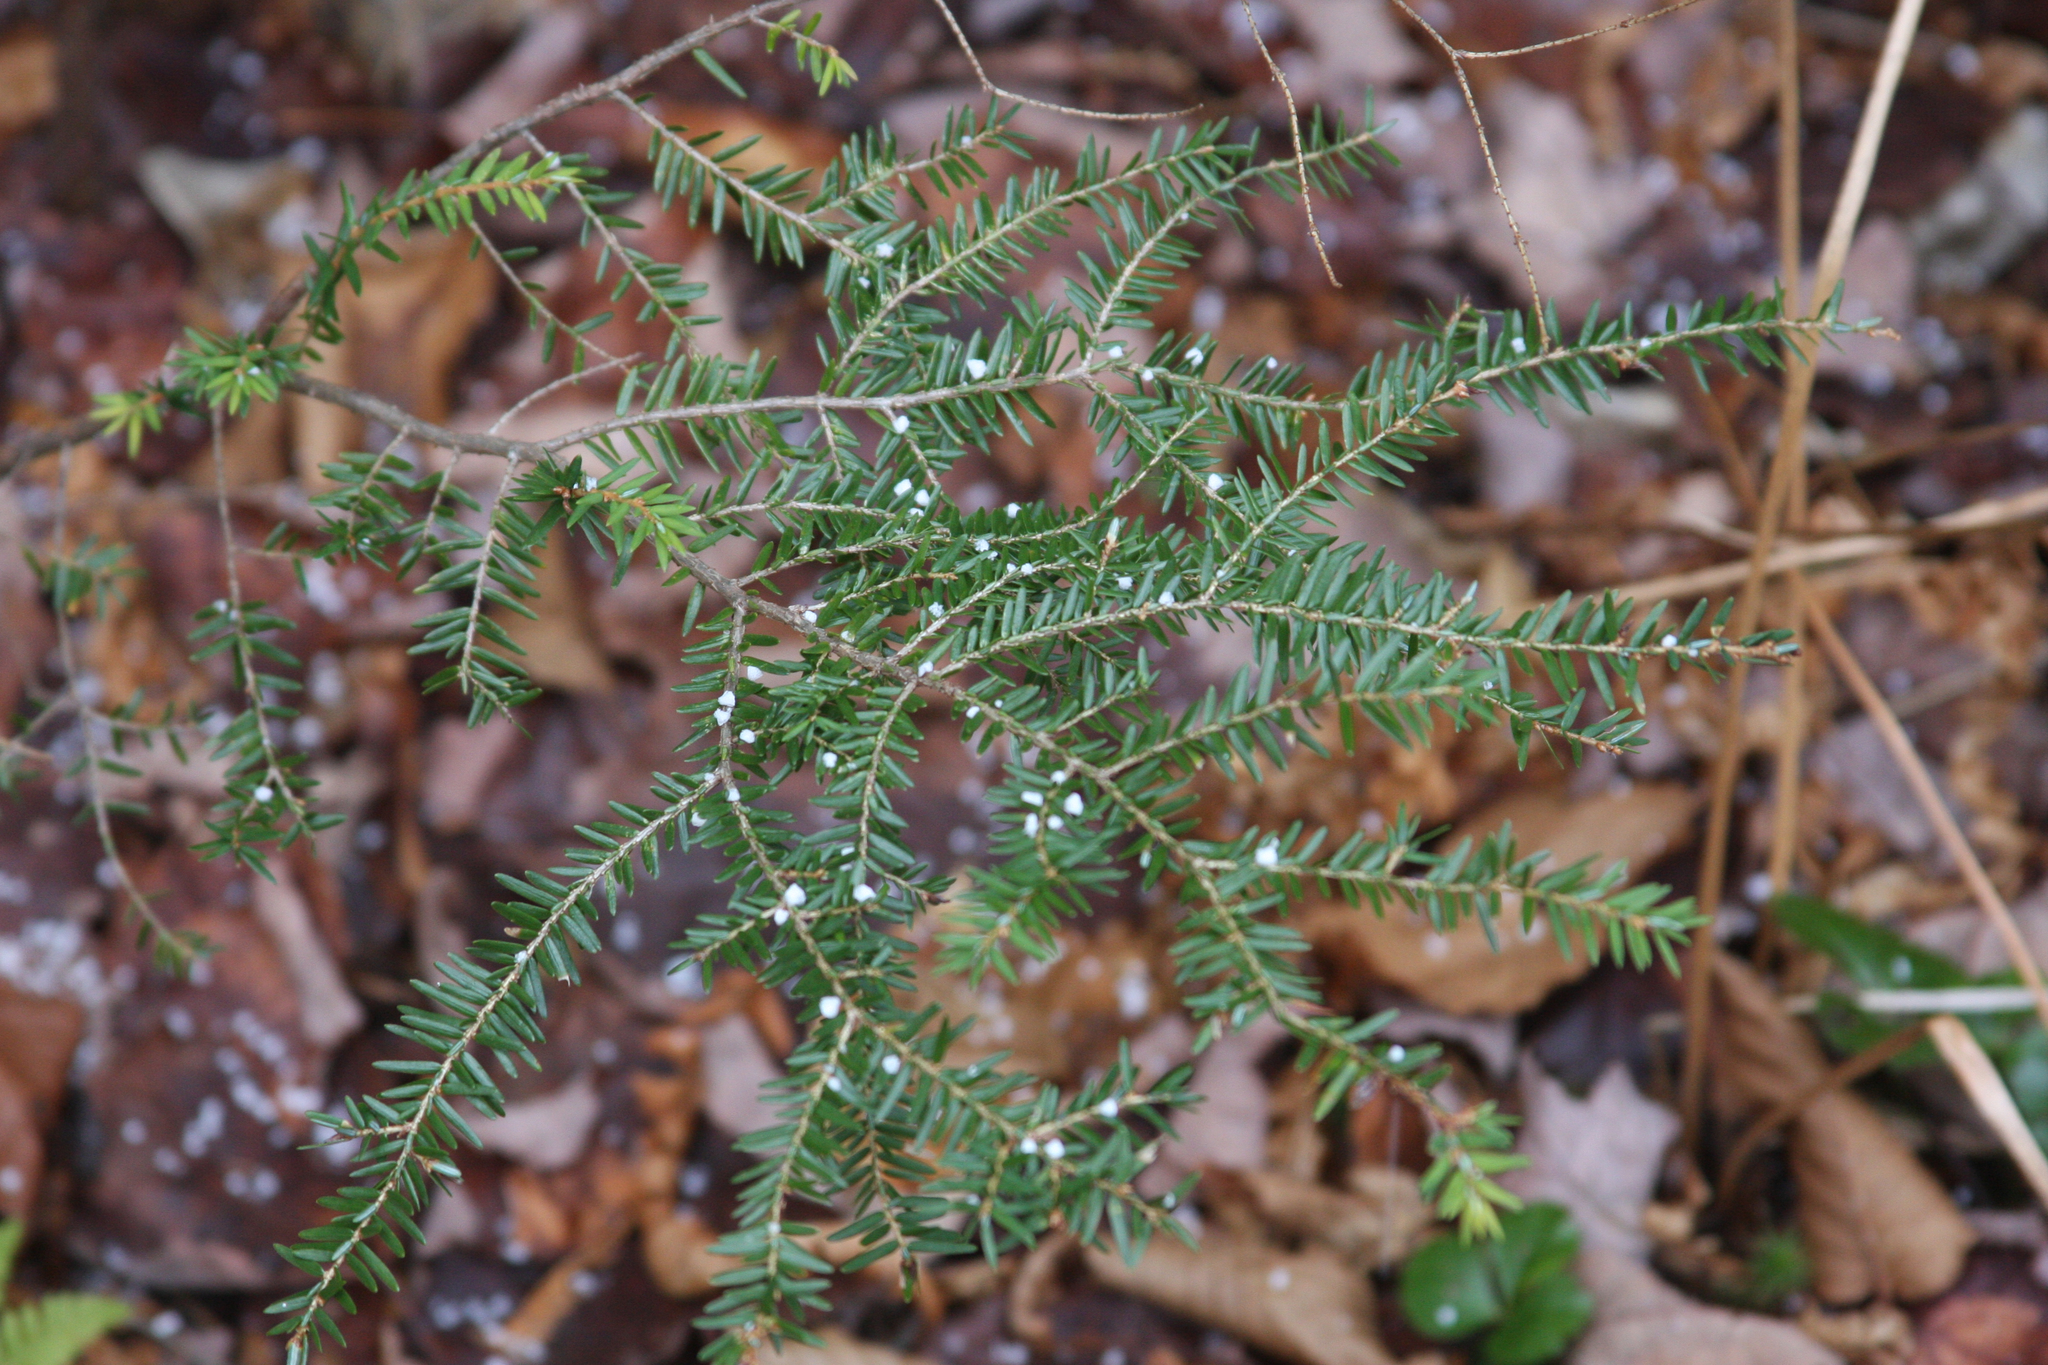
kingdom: Plantae
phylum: Tracheophyta
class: Pinopsida
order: Pinales
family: Pinaceae
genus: Tsuga
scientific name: Tsuga canadensis
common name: Eastern hemlock
